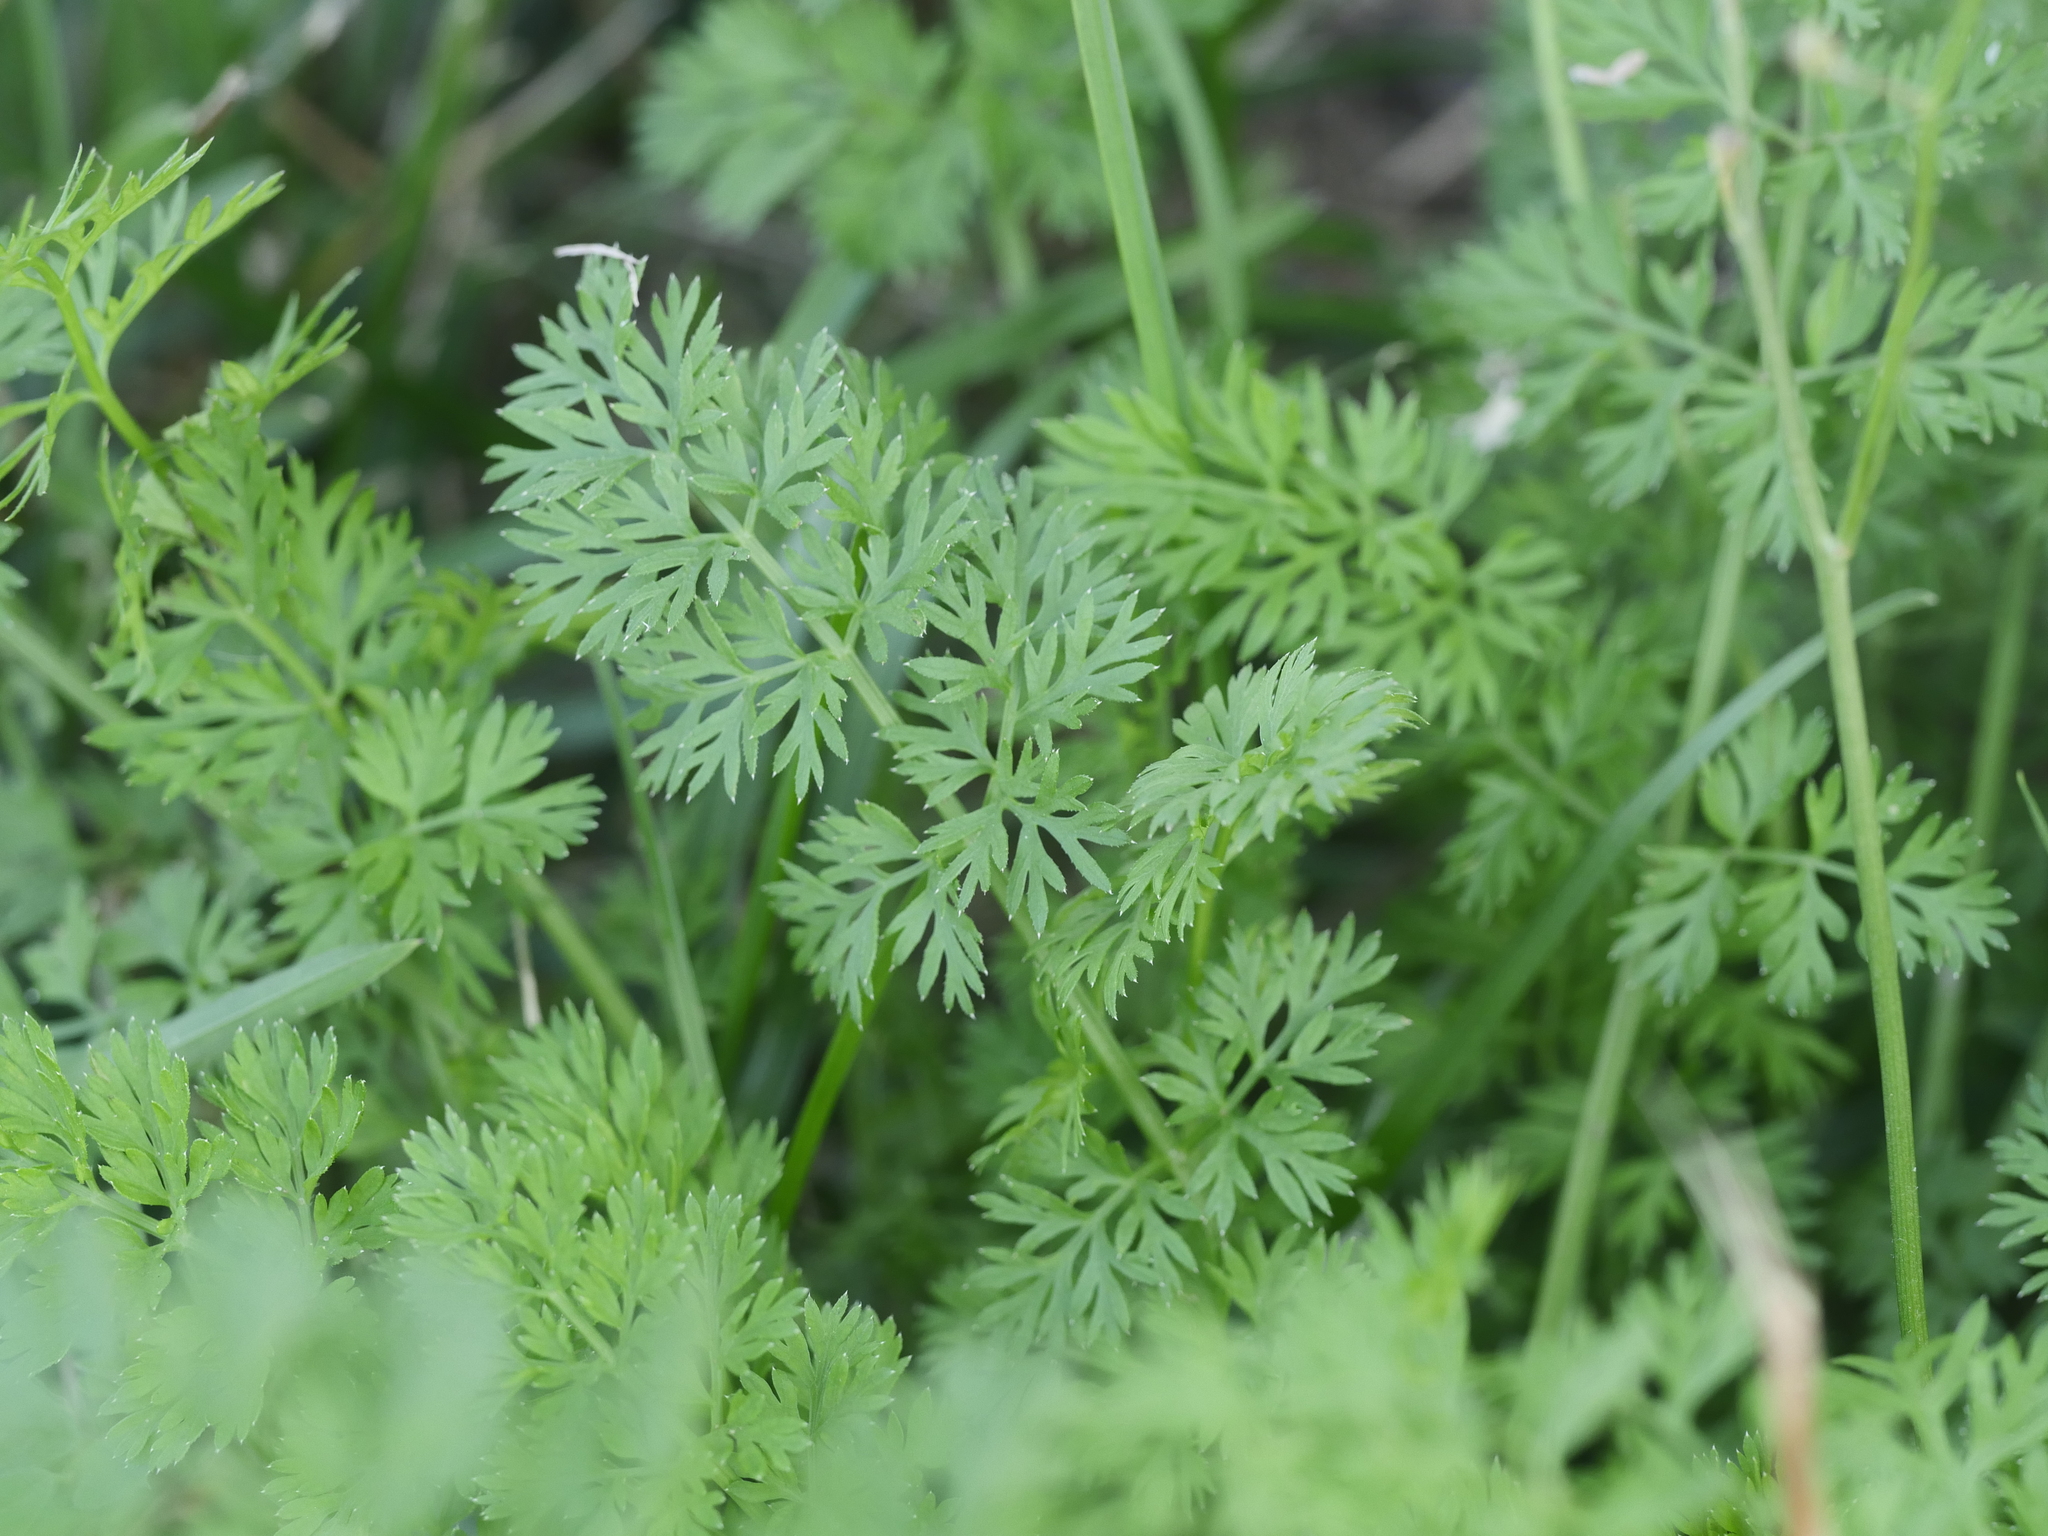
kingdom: Plantae
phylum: Tracheophyta
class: Magnoliopsida
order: Apiales
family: Apiaceae
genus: Daucus
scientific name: Daucus carota
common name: Wild carrot
